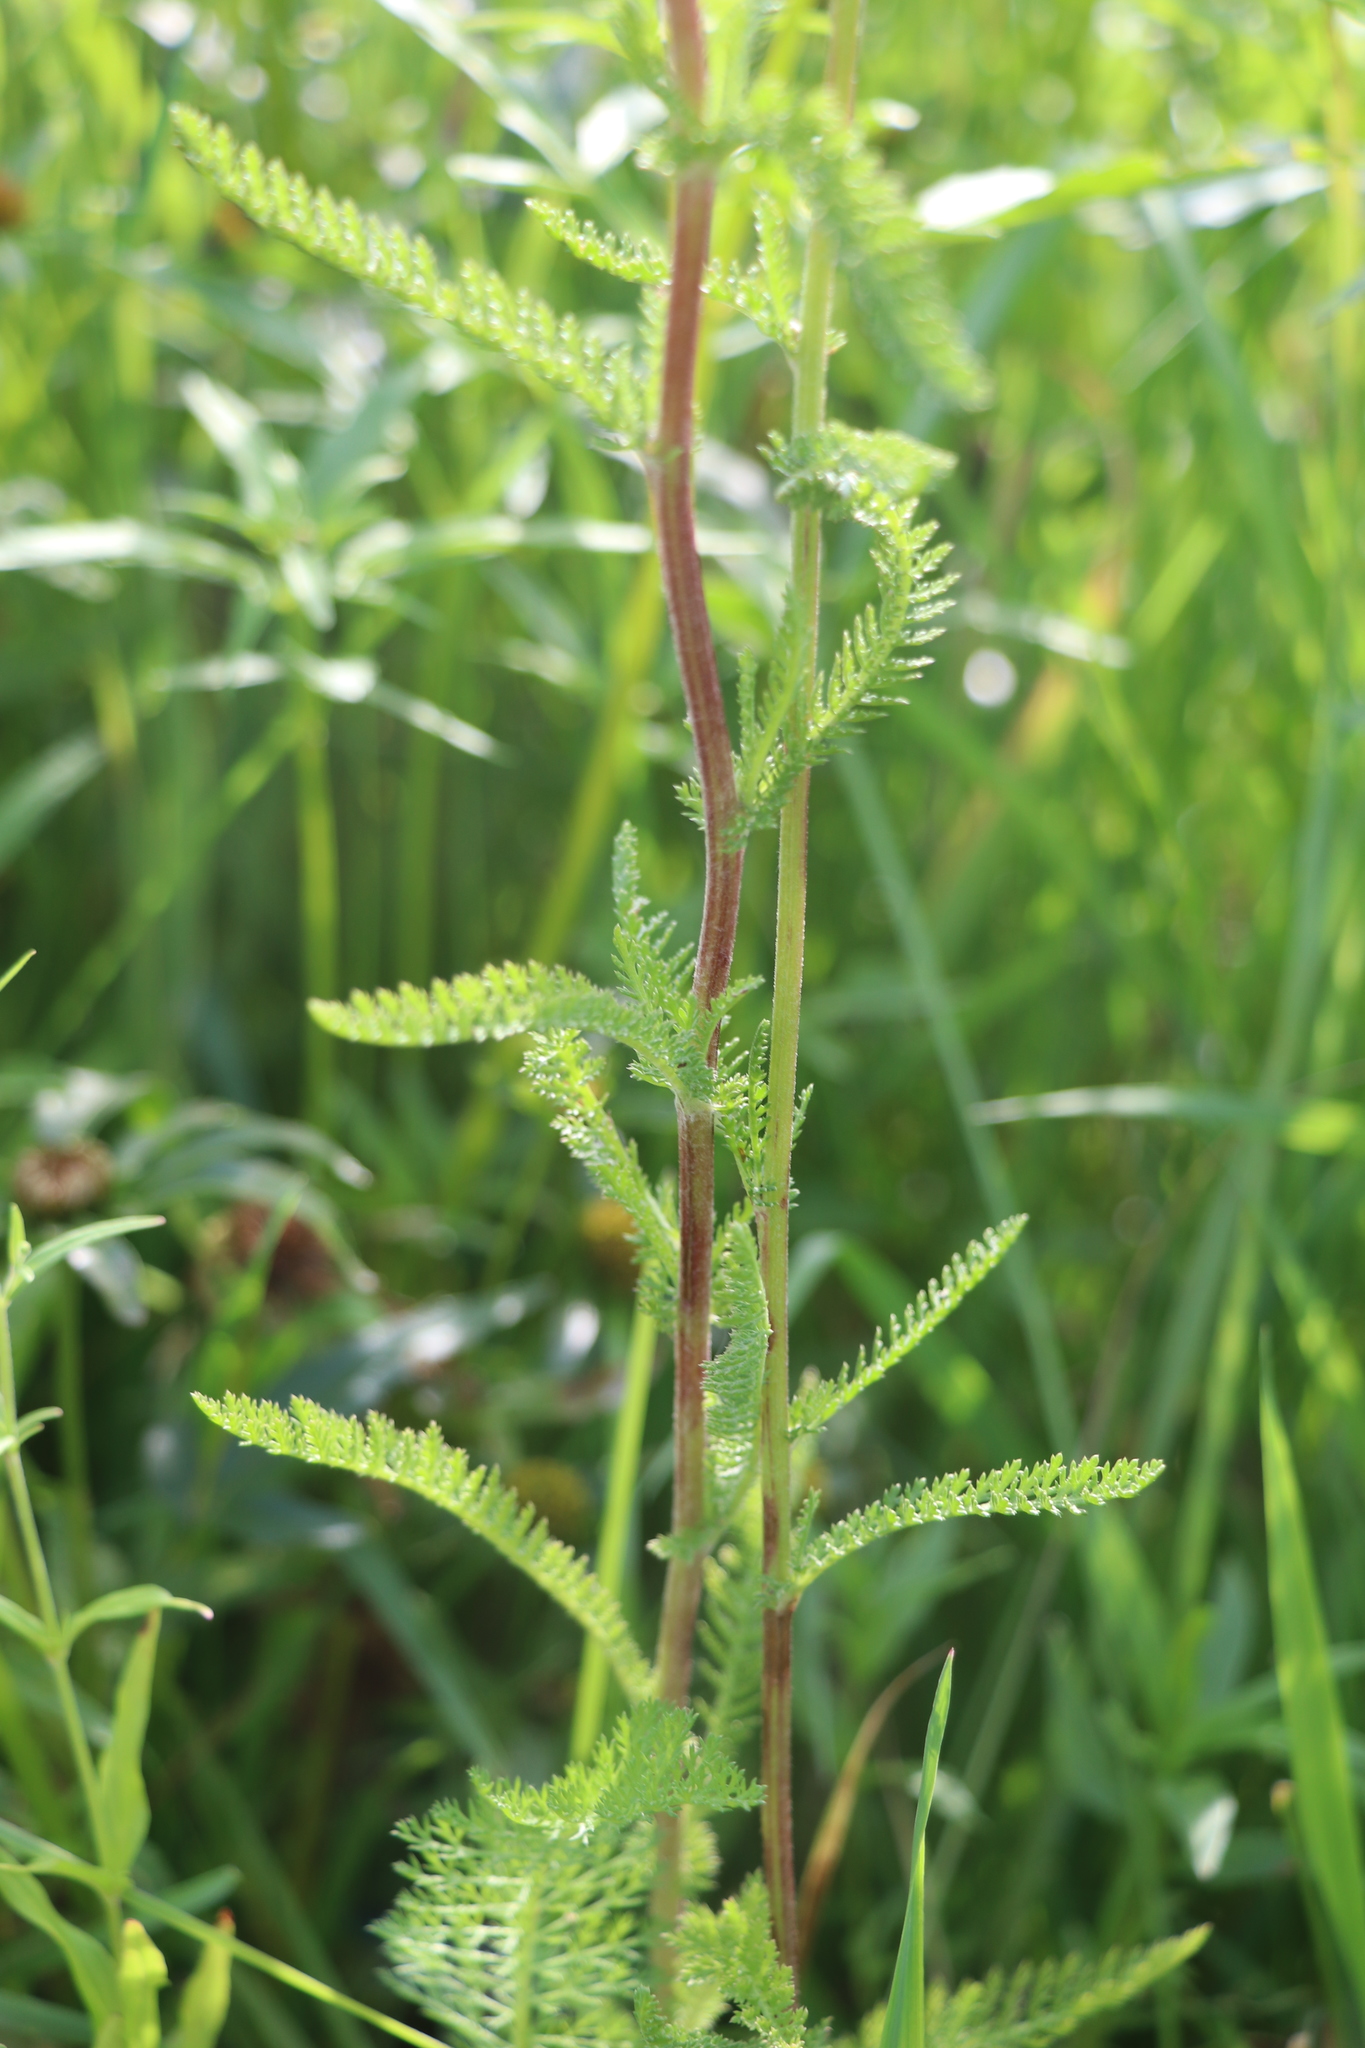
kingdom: Plantae
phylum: Tracheophyta
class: Magnoliopsida
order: Asterales
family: Asteraceae
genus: Achillea
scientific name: Achillea millefolium
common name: Yarrow
